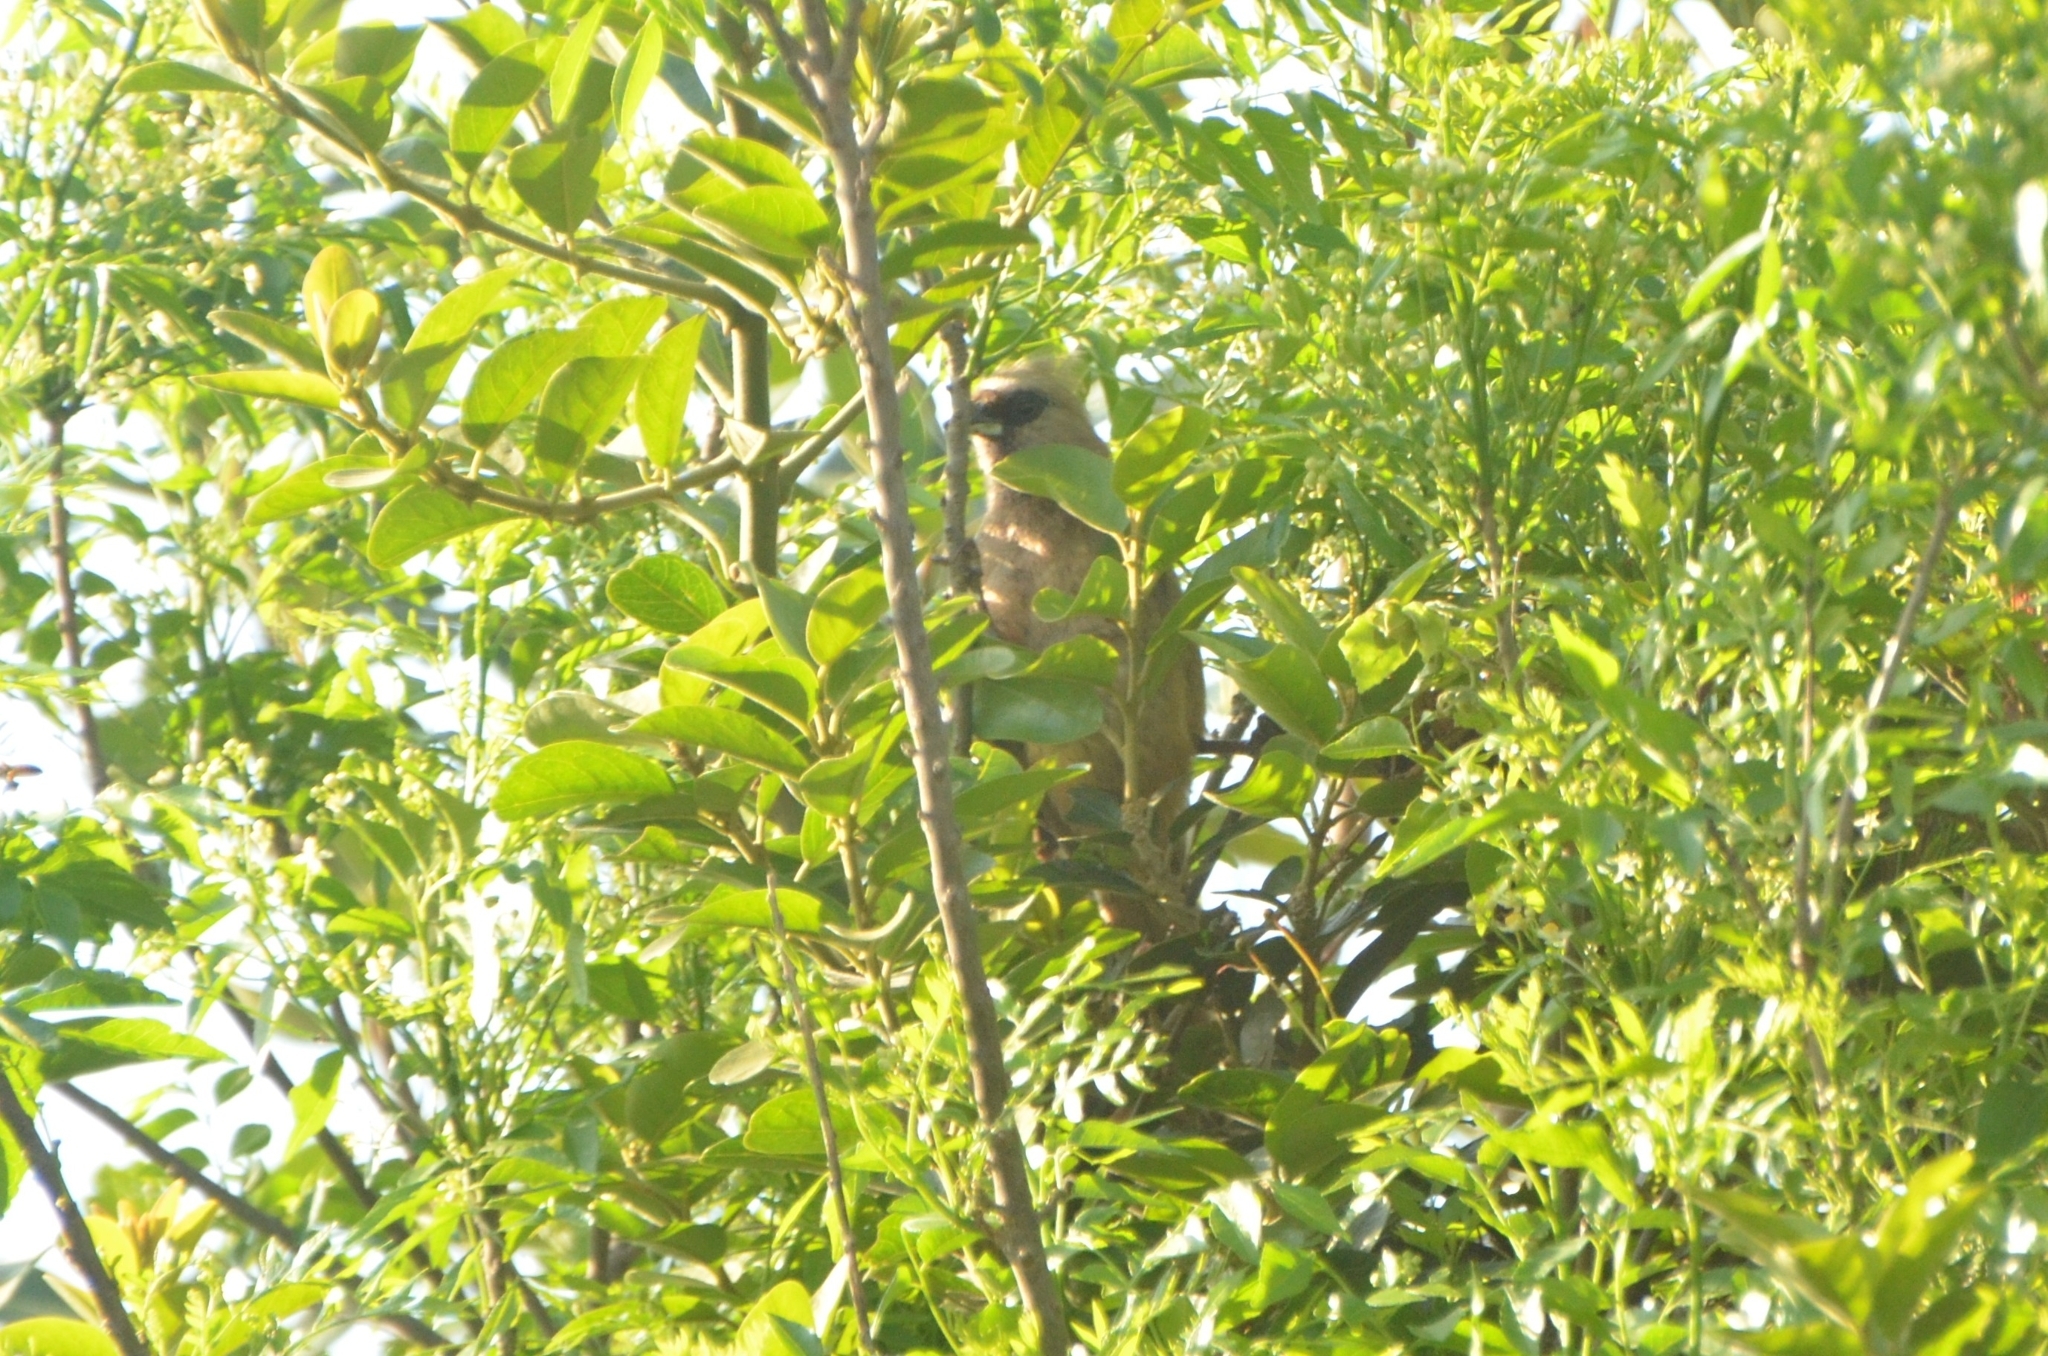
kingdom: Animalia
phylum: Chordata
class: Aves
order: Coliiformes
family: Coliidae
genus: Colius
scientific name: Colius striatus
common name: Speckled mousebird
